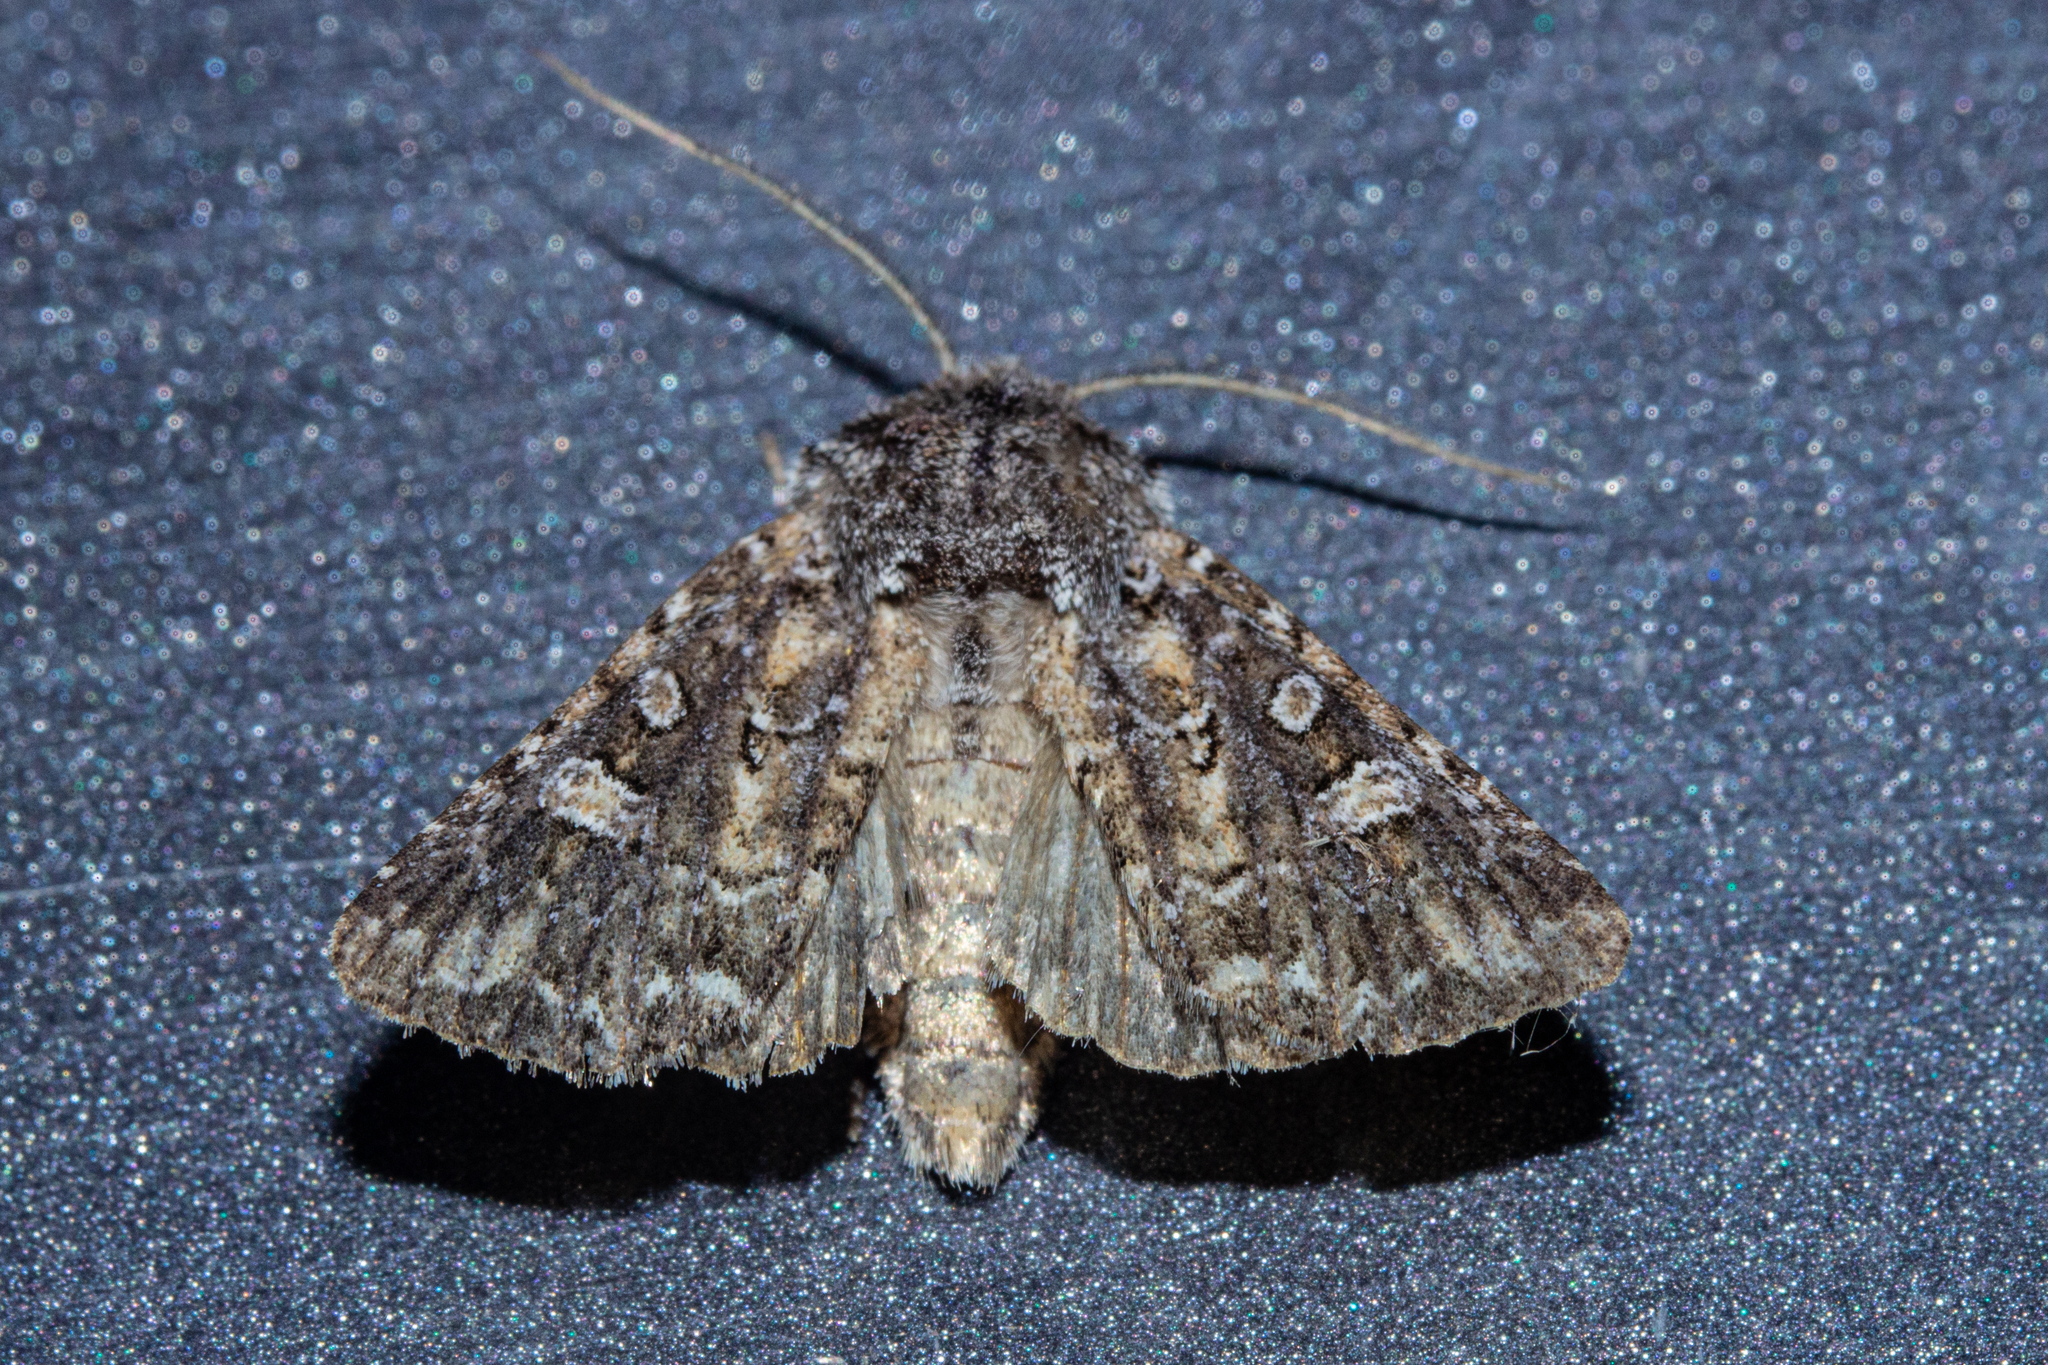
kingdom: Animalia
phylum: Arthropoda
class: Insecta
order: Lepidoptera
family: Noctuidae
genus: Ichneutica
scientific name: Ichneutica lithias
